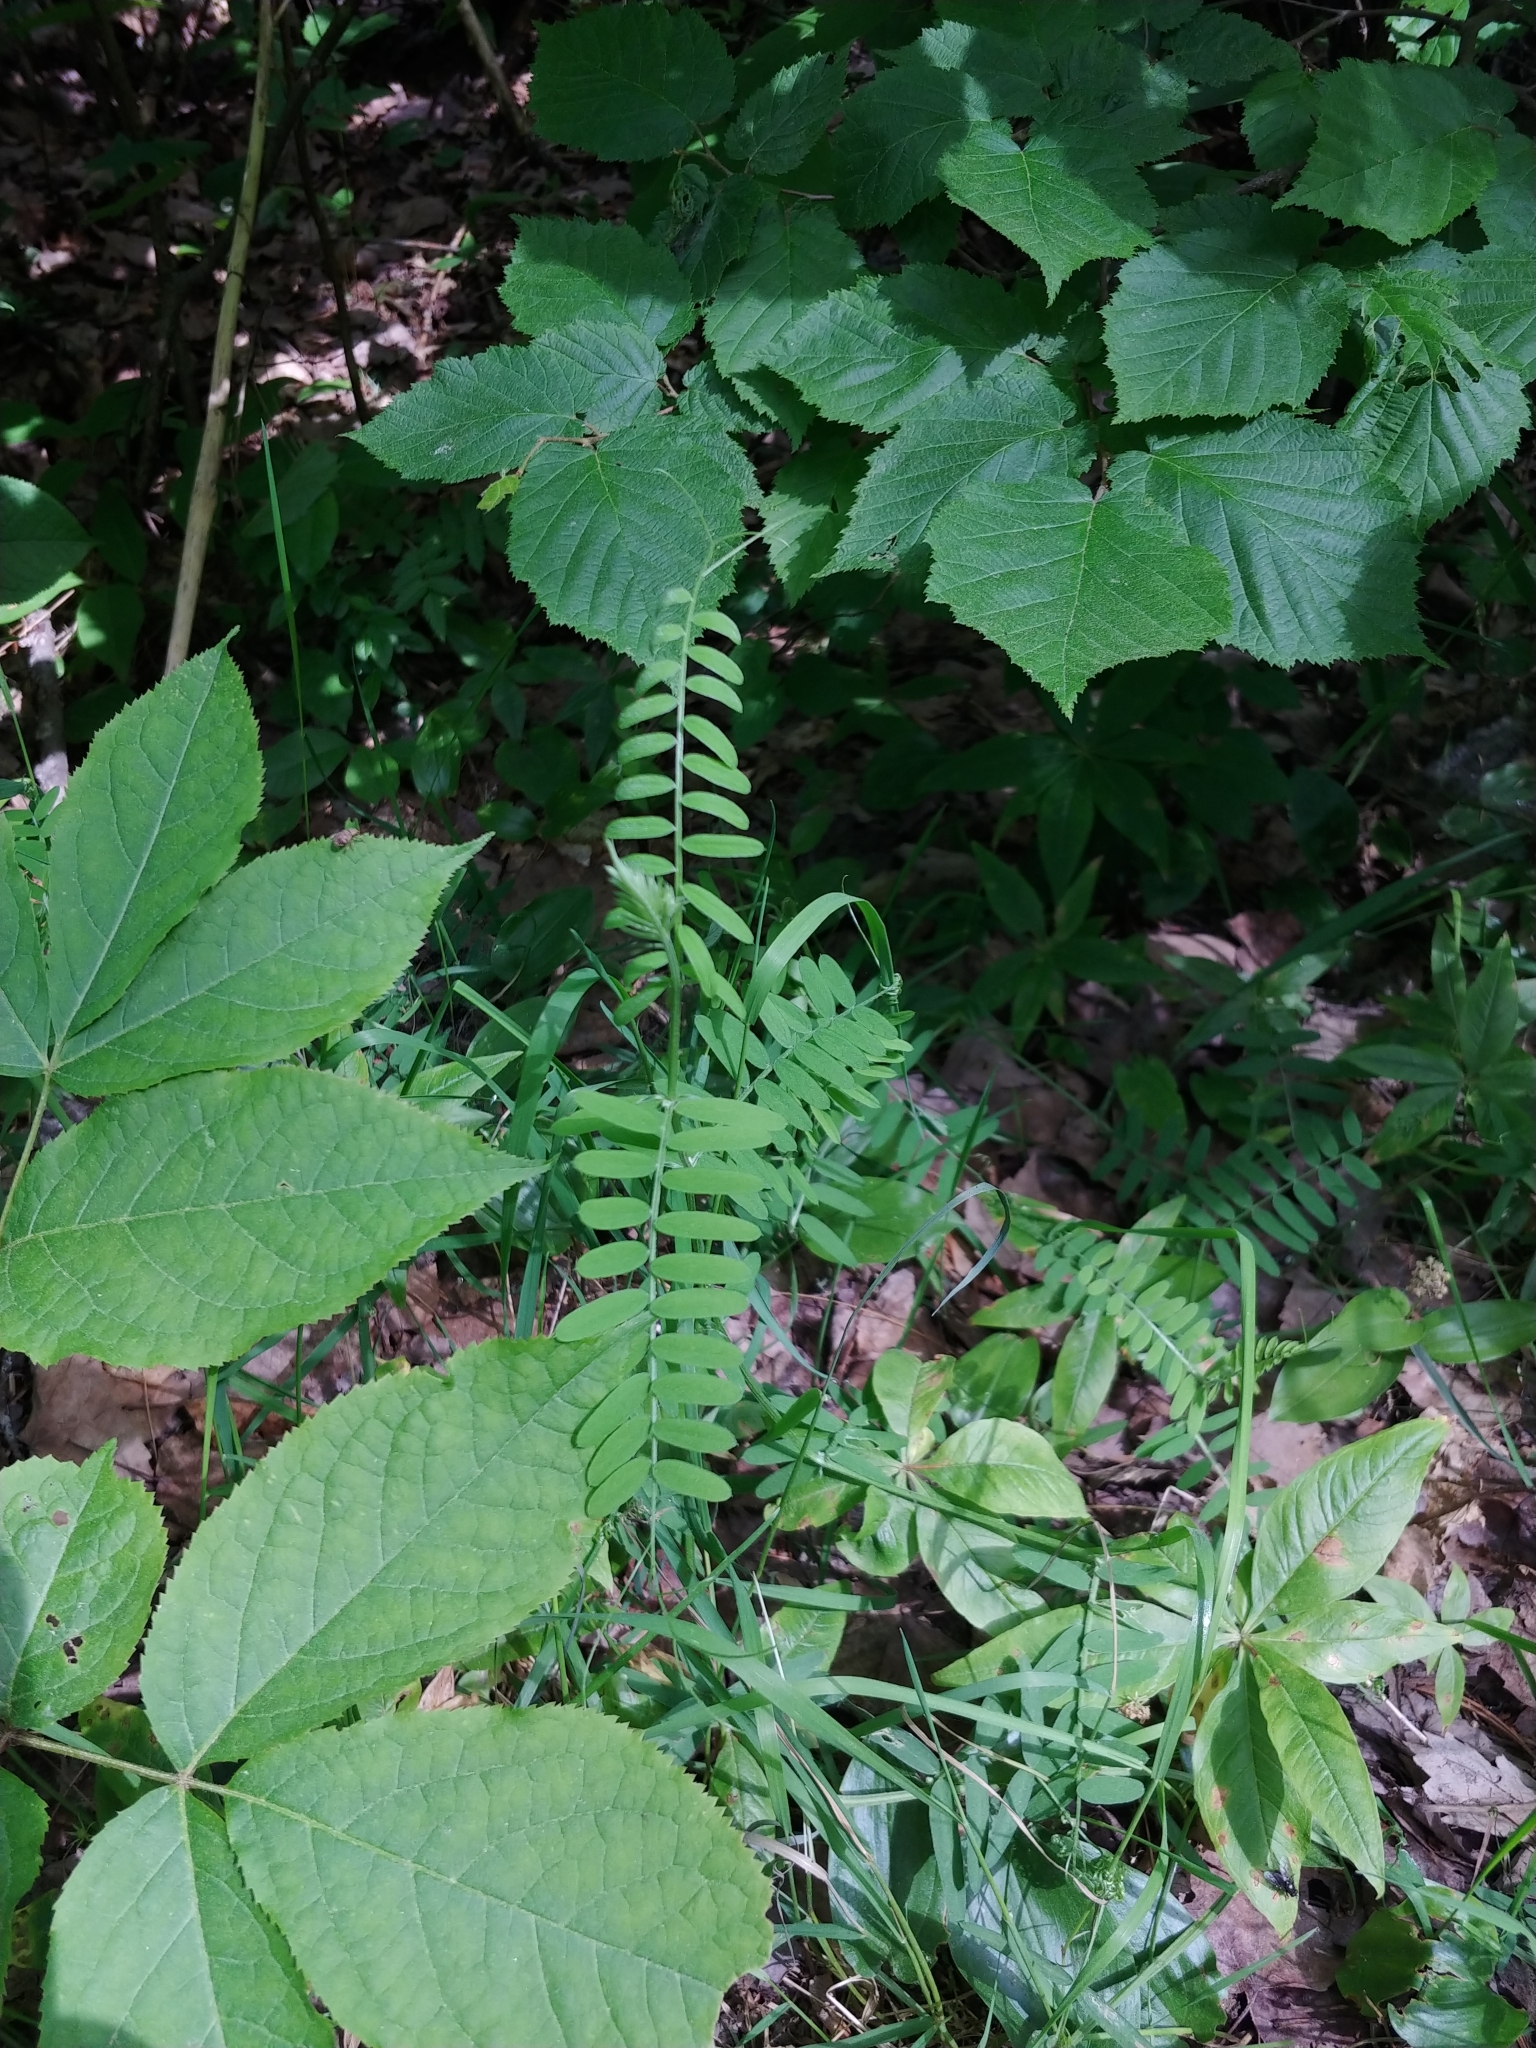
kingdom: Plantae
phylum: Tracheophyta
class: Magnoliopsida
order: Fabales
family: Fabaceae
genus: Vicia
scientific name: Vicia cracca
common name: Bird vetch
